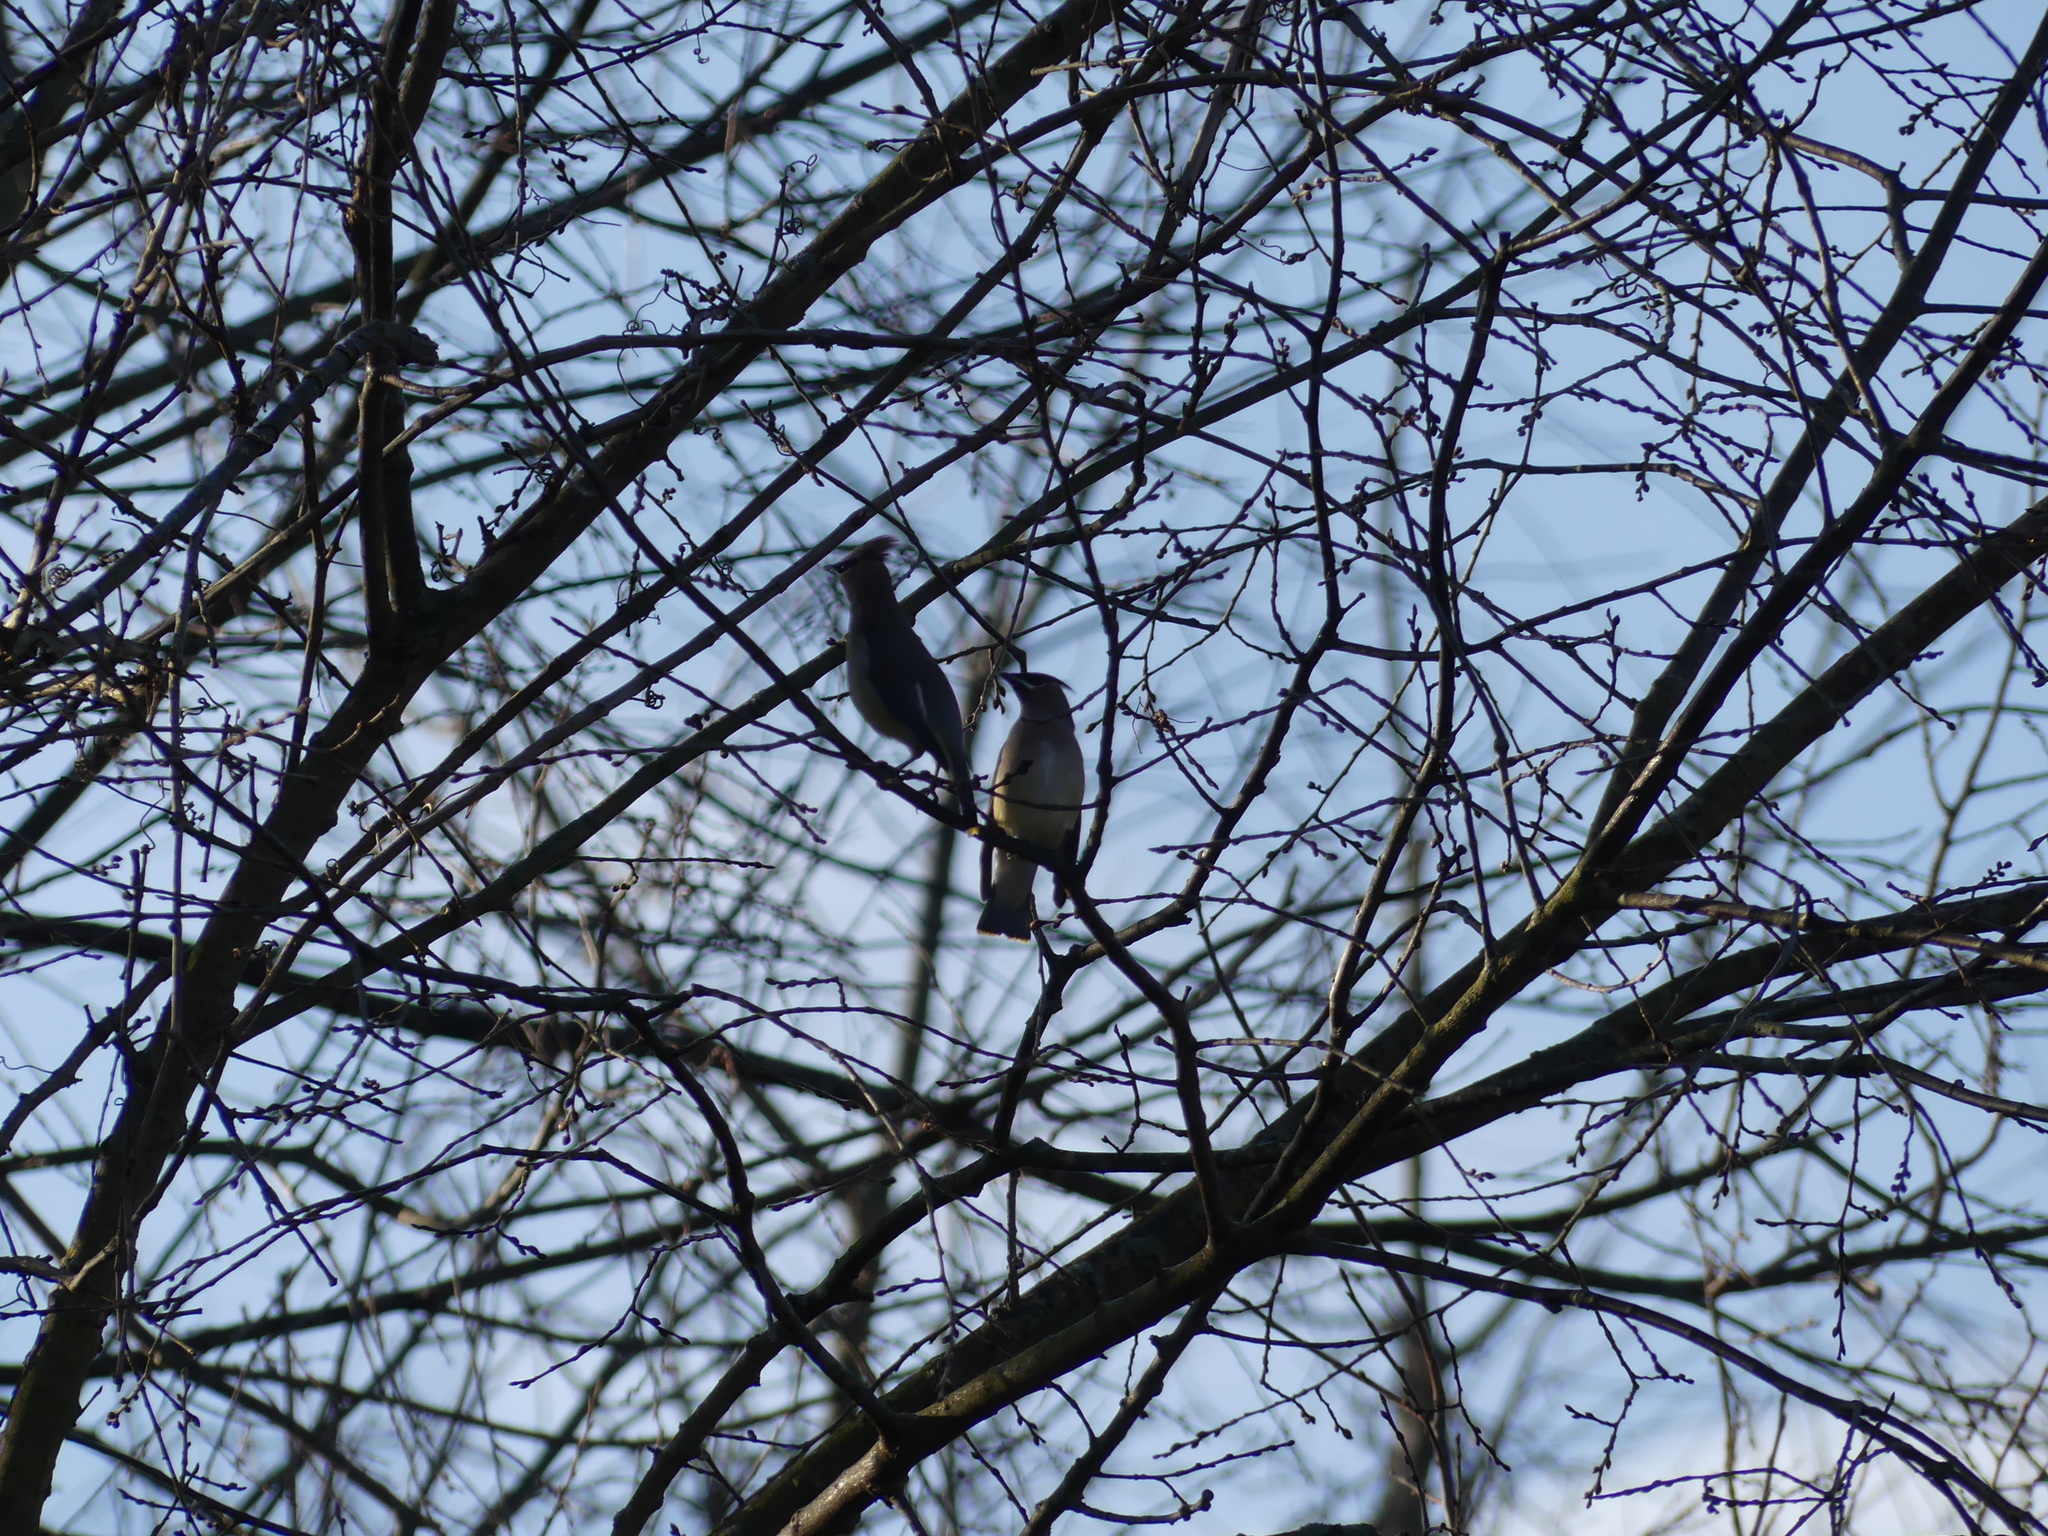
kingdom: Animalia
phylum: Chordata
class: Aves
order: Passeriformes
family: Bombycillidae
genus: Bombycilla
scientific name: Bombycilla cedrorum
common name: Cedar waxwing
